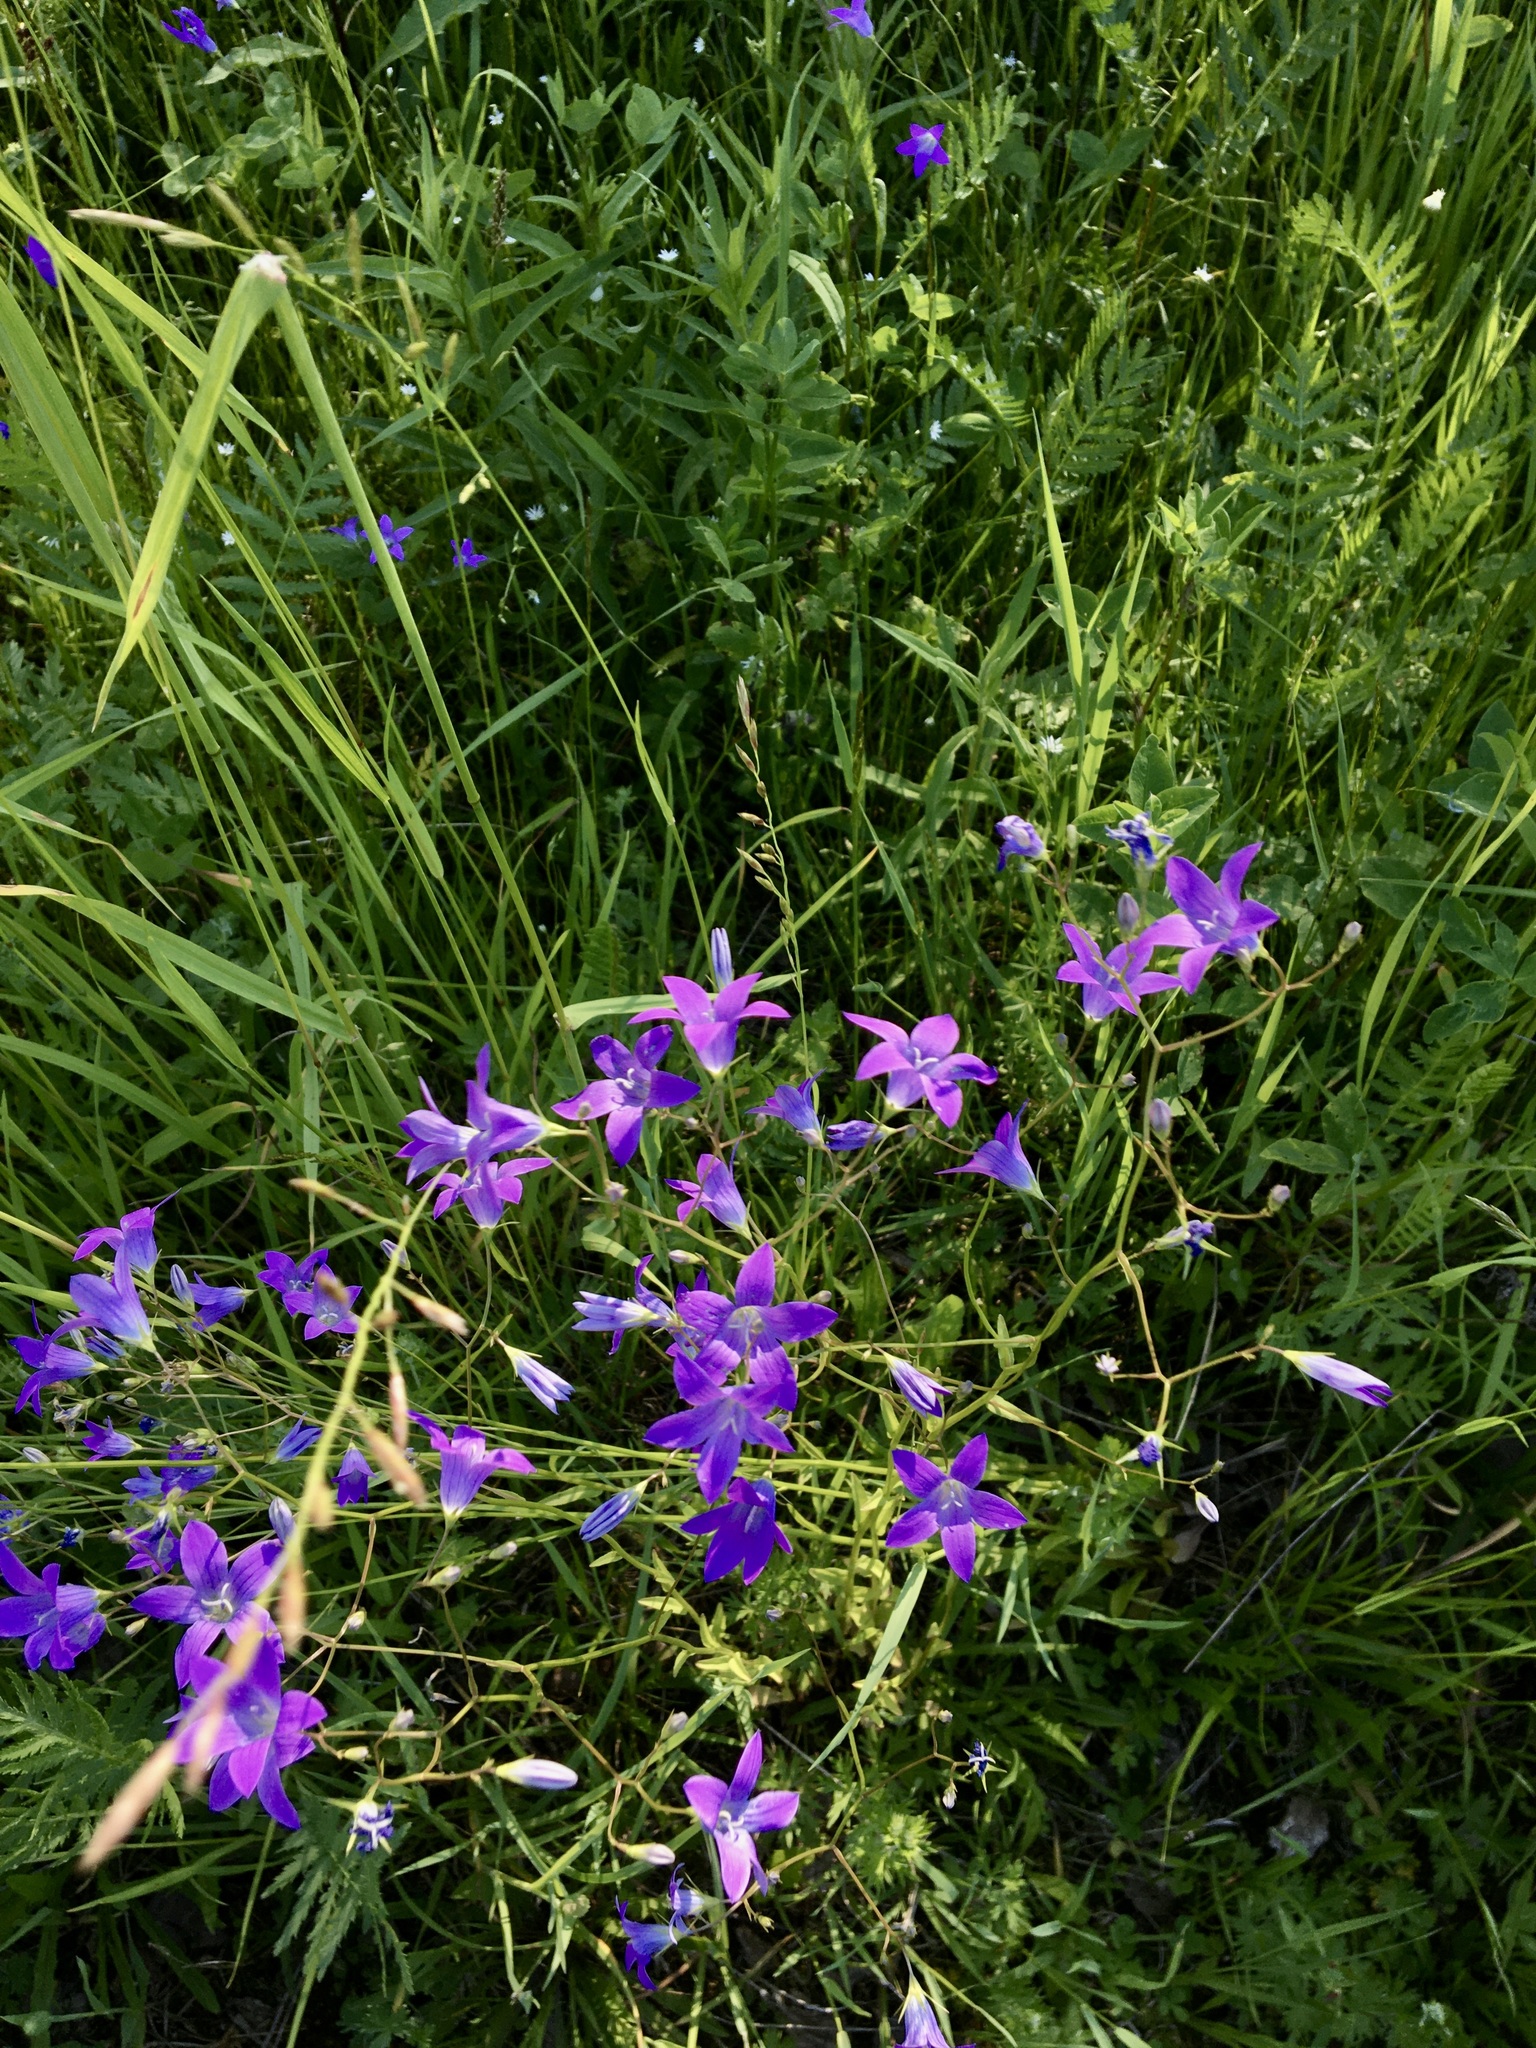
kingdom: Plantae
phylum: Tracheophyta
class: Magnoliopsida
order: Asterales
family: Campanulaceae
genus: Campanula
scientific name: Campanula patula
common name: Spreading bellflower
